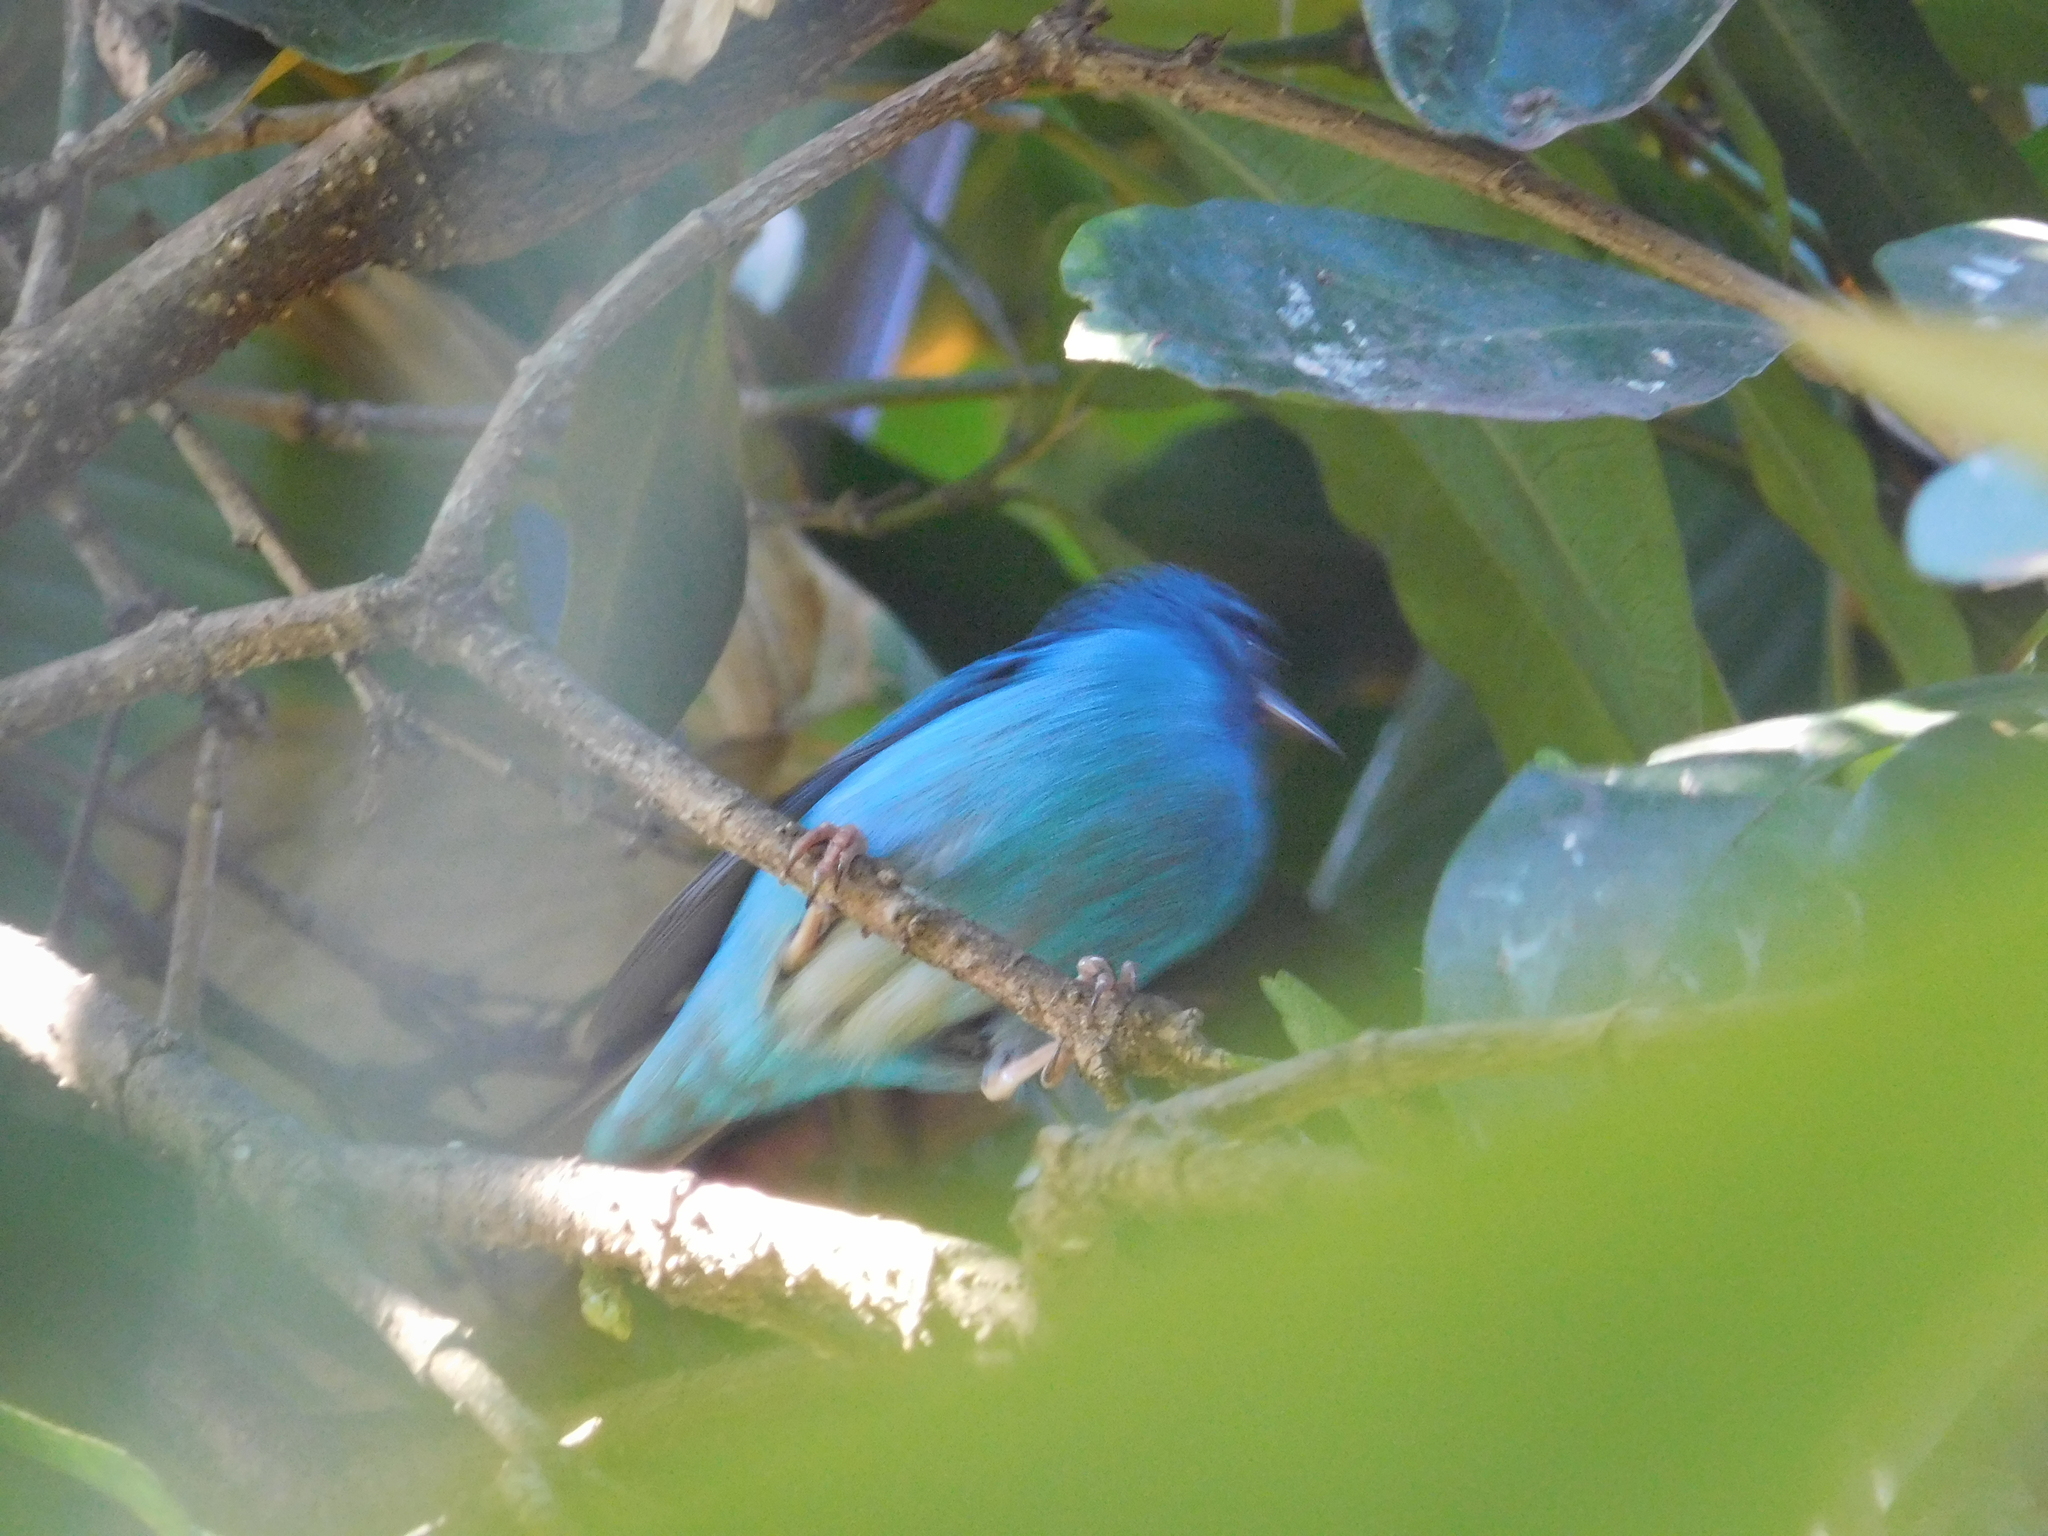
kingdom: Animalia
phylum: Chordata
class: Aves
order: Passeriformes
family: Thraupidae
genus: Dacnis
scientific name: Dacnis cayana
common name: Blue dacnis
